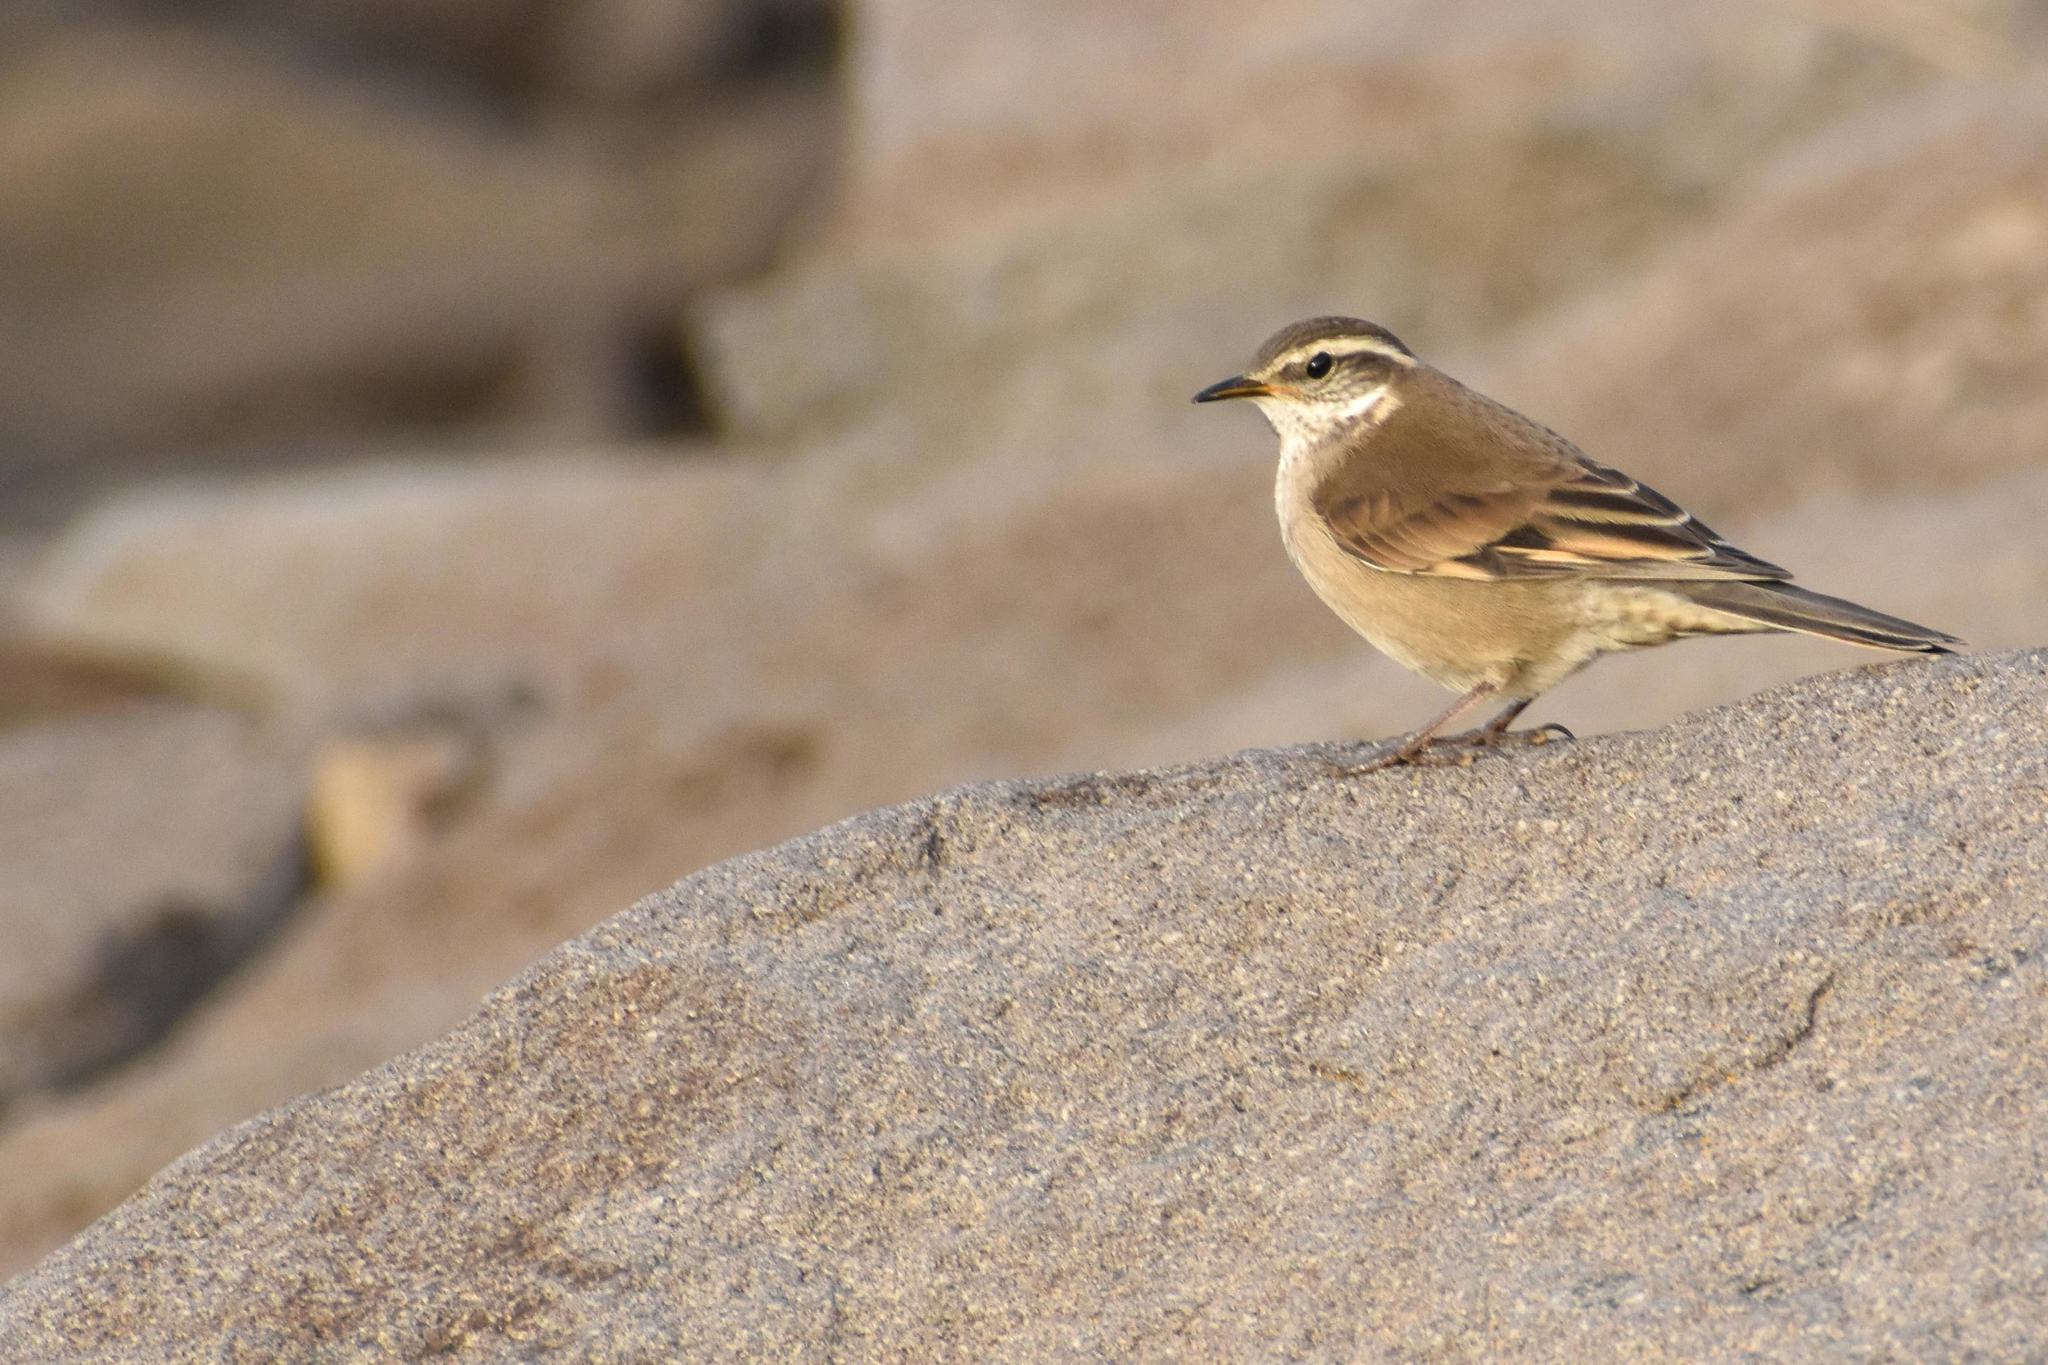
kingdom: Animalia
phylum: Chordata
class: Aves
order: Passeriformes
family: Furnariidae
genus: Cinclodes
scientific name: Cinclodes fuscus
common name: Buff-winged cinclodes
